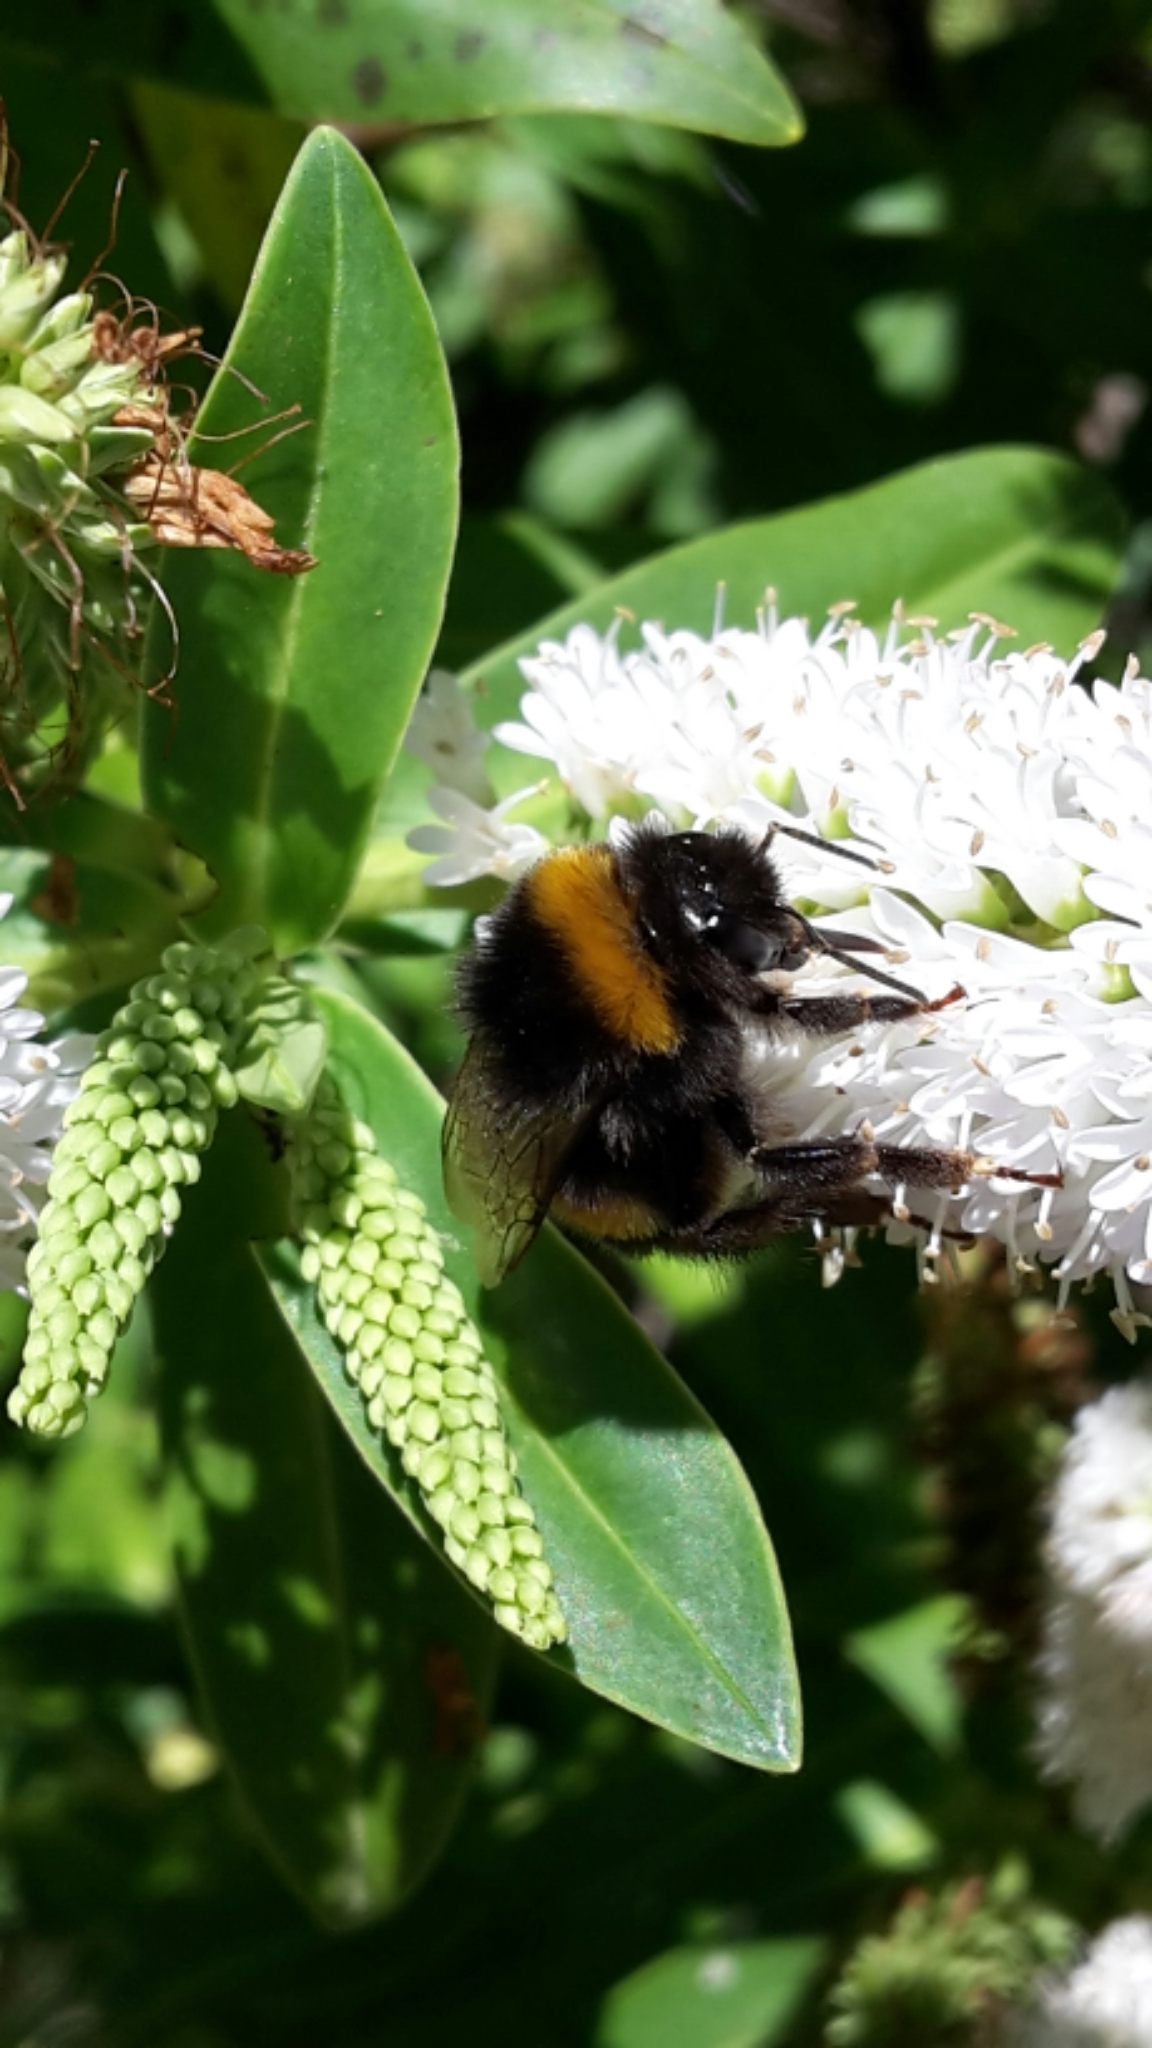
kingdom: Animalia
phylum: Arthropoda
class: Insecta
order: Hymenoptera
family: Apidae
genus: Bombus
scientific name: Bombus terrestris
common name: Buff-tailed bumblebee
